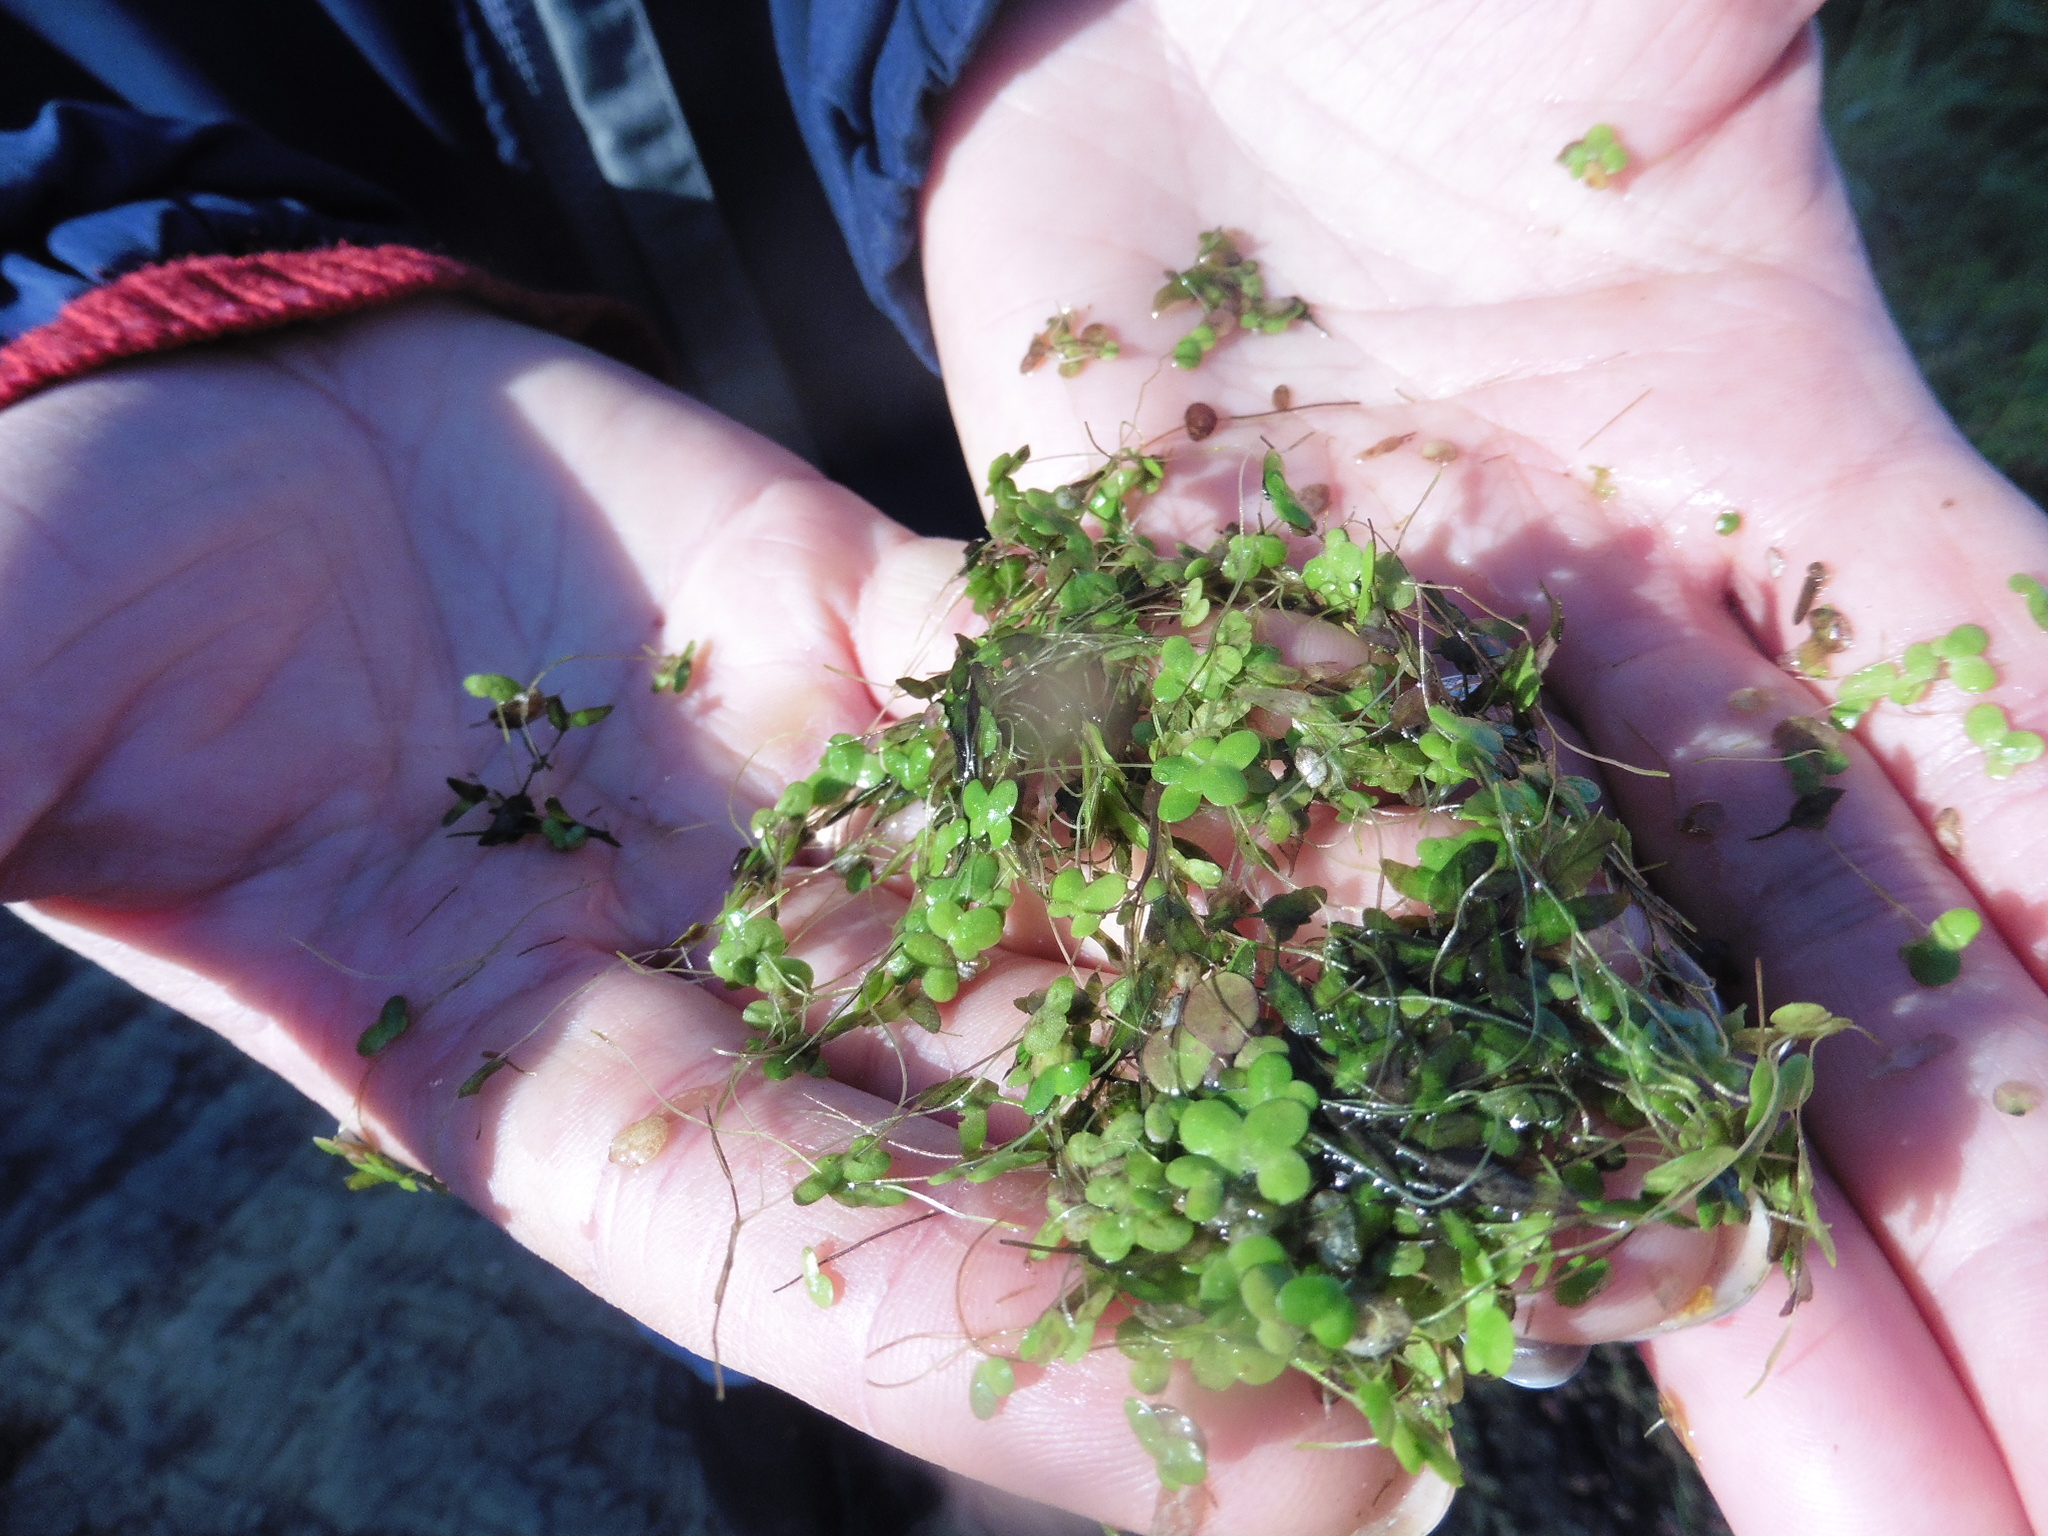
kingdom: Plantae
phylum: Tracheophyta
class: Liliopsida
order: Alismatales
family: Araceae
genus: Lemna
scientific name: Lemna minor
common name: Common duckweed
